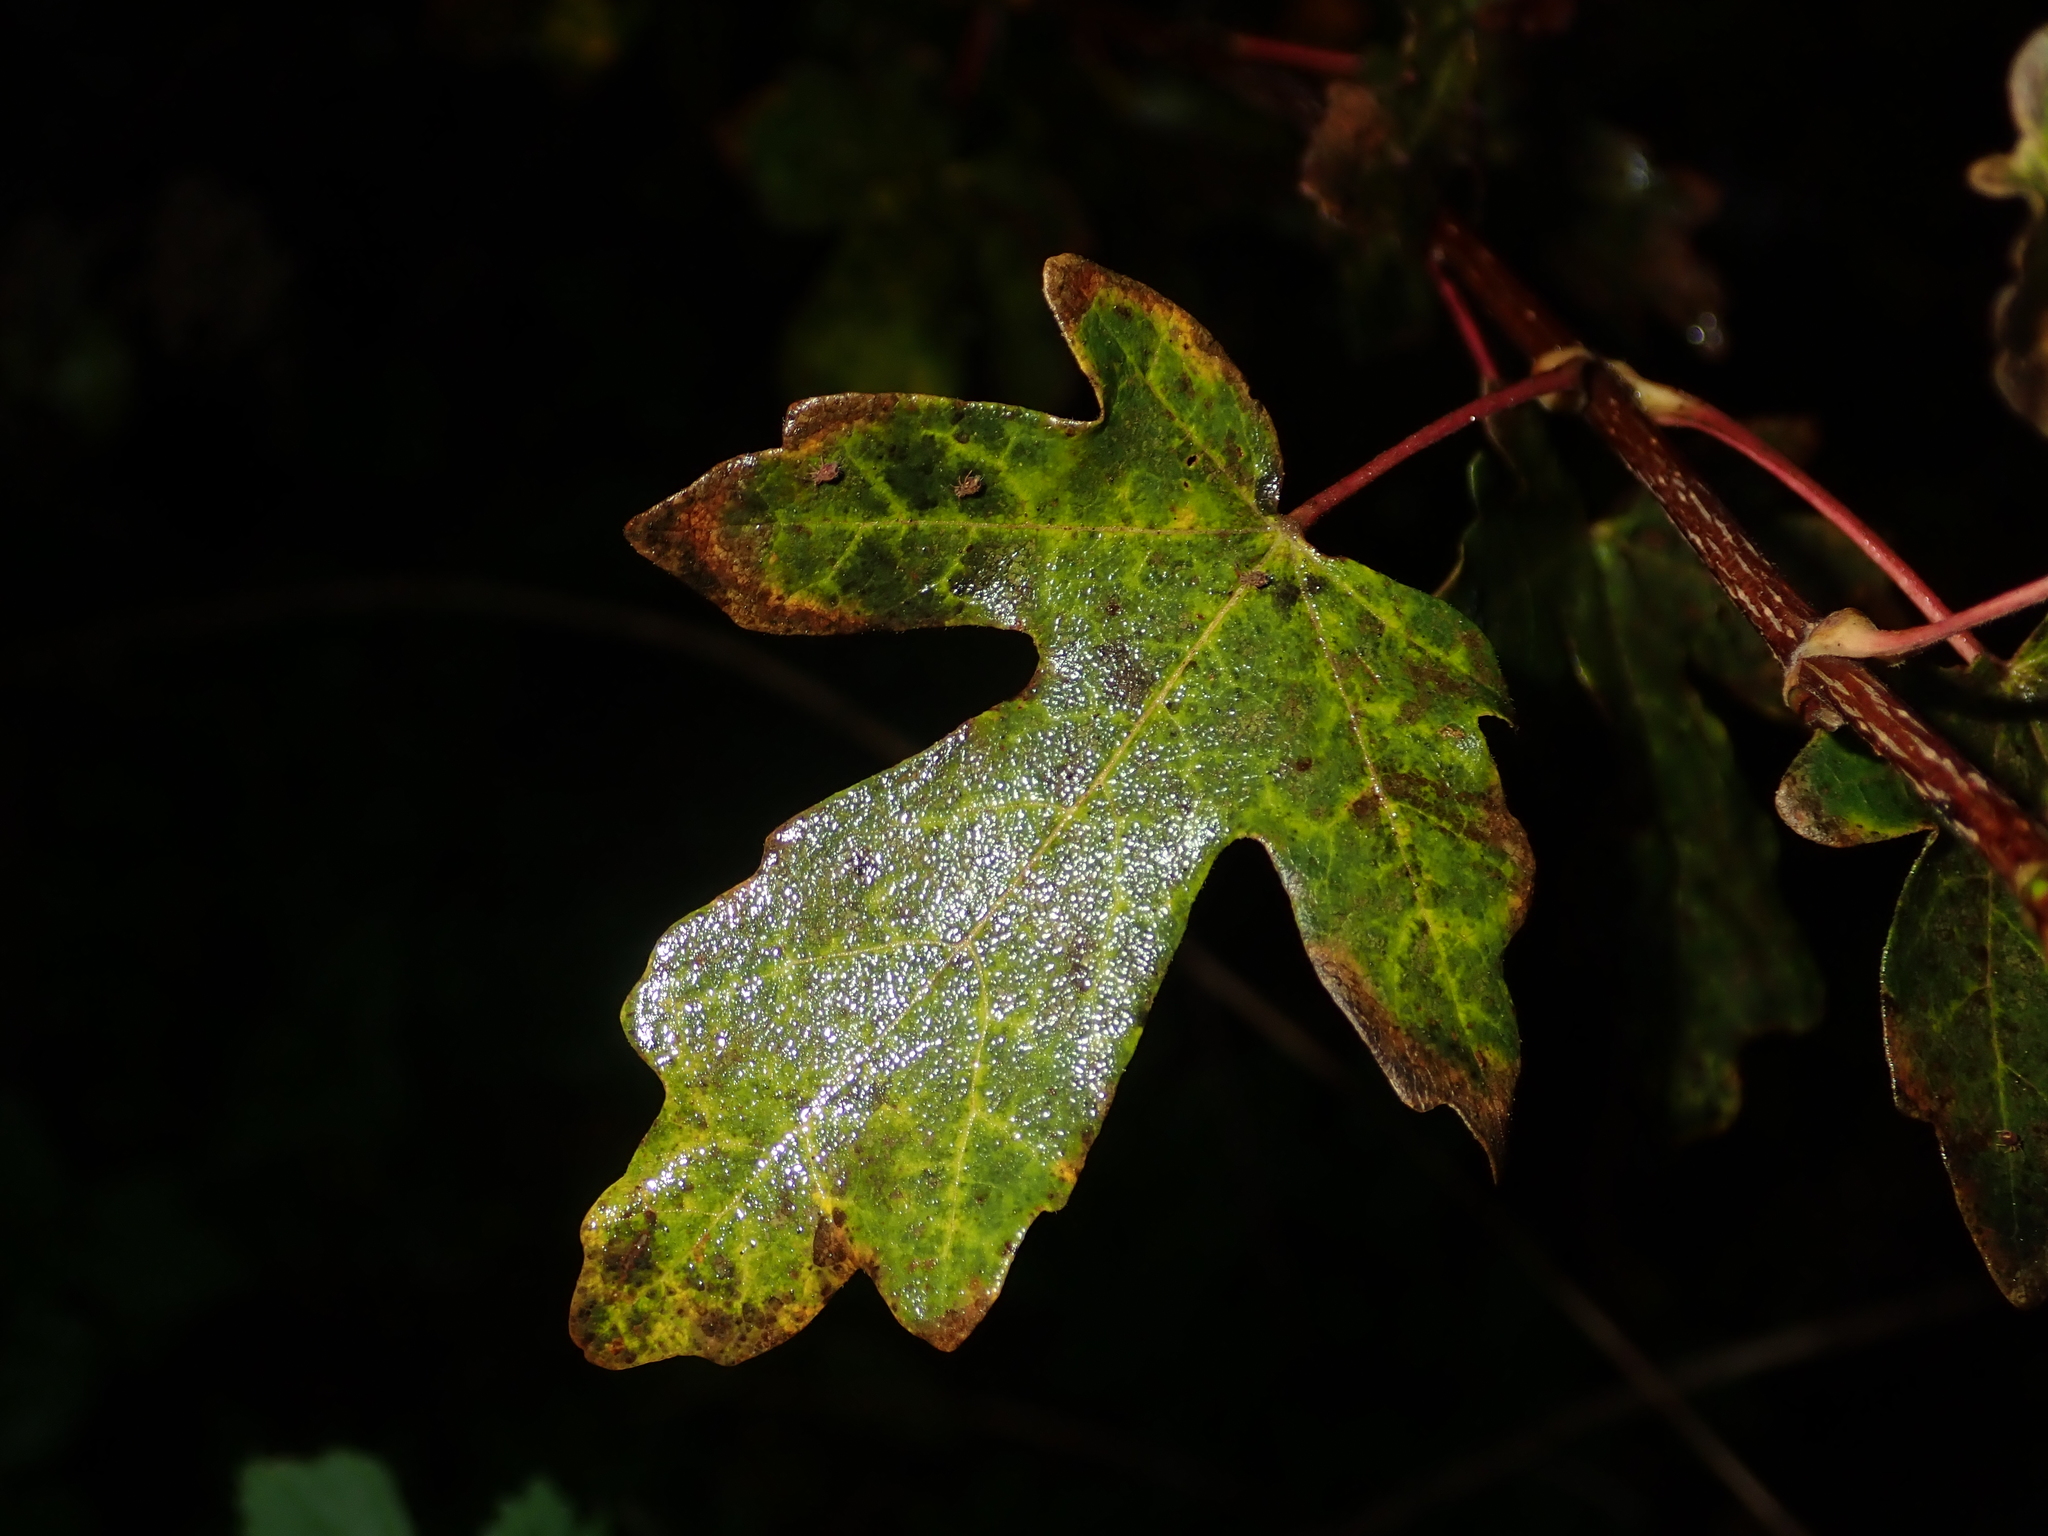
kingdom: Plantae
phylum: Tracheophyta
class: Magnoliopsida
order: Sapindales
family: Sapindaceae
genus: Acer
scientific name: Acer campestre
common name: Field maple
